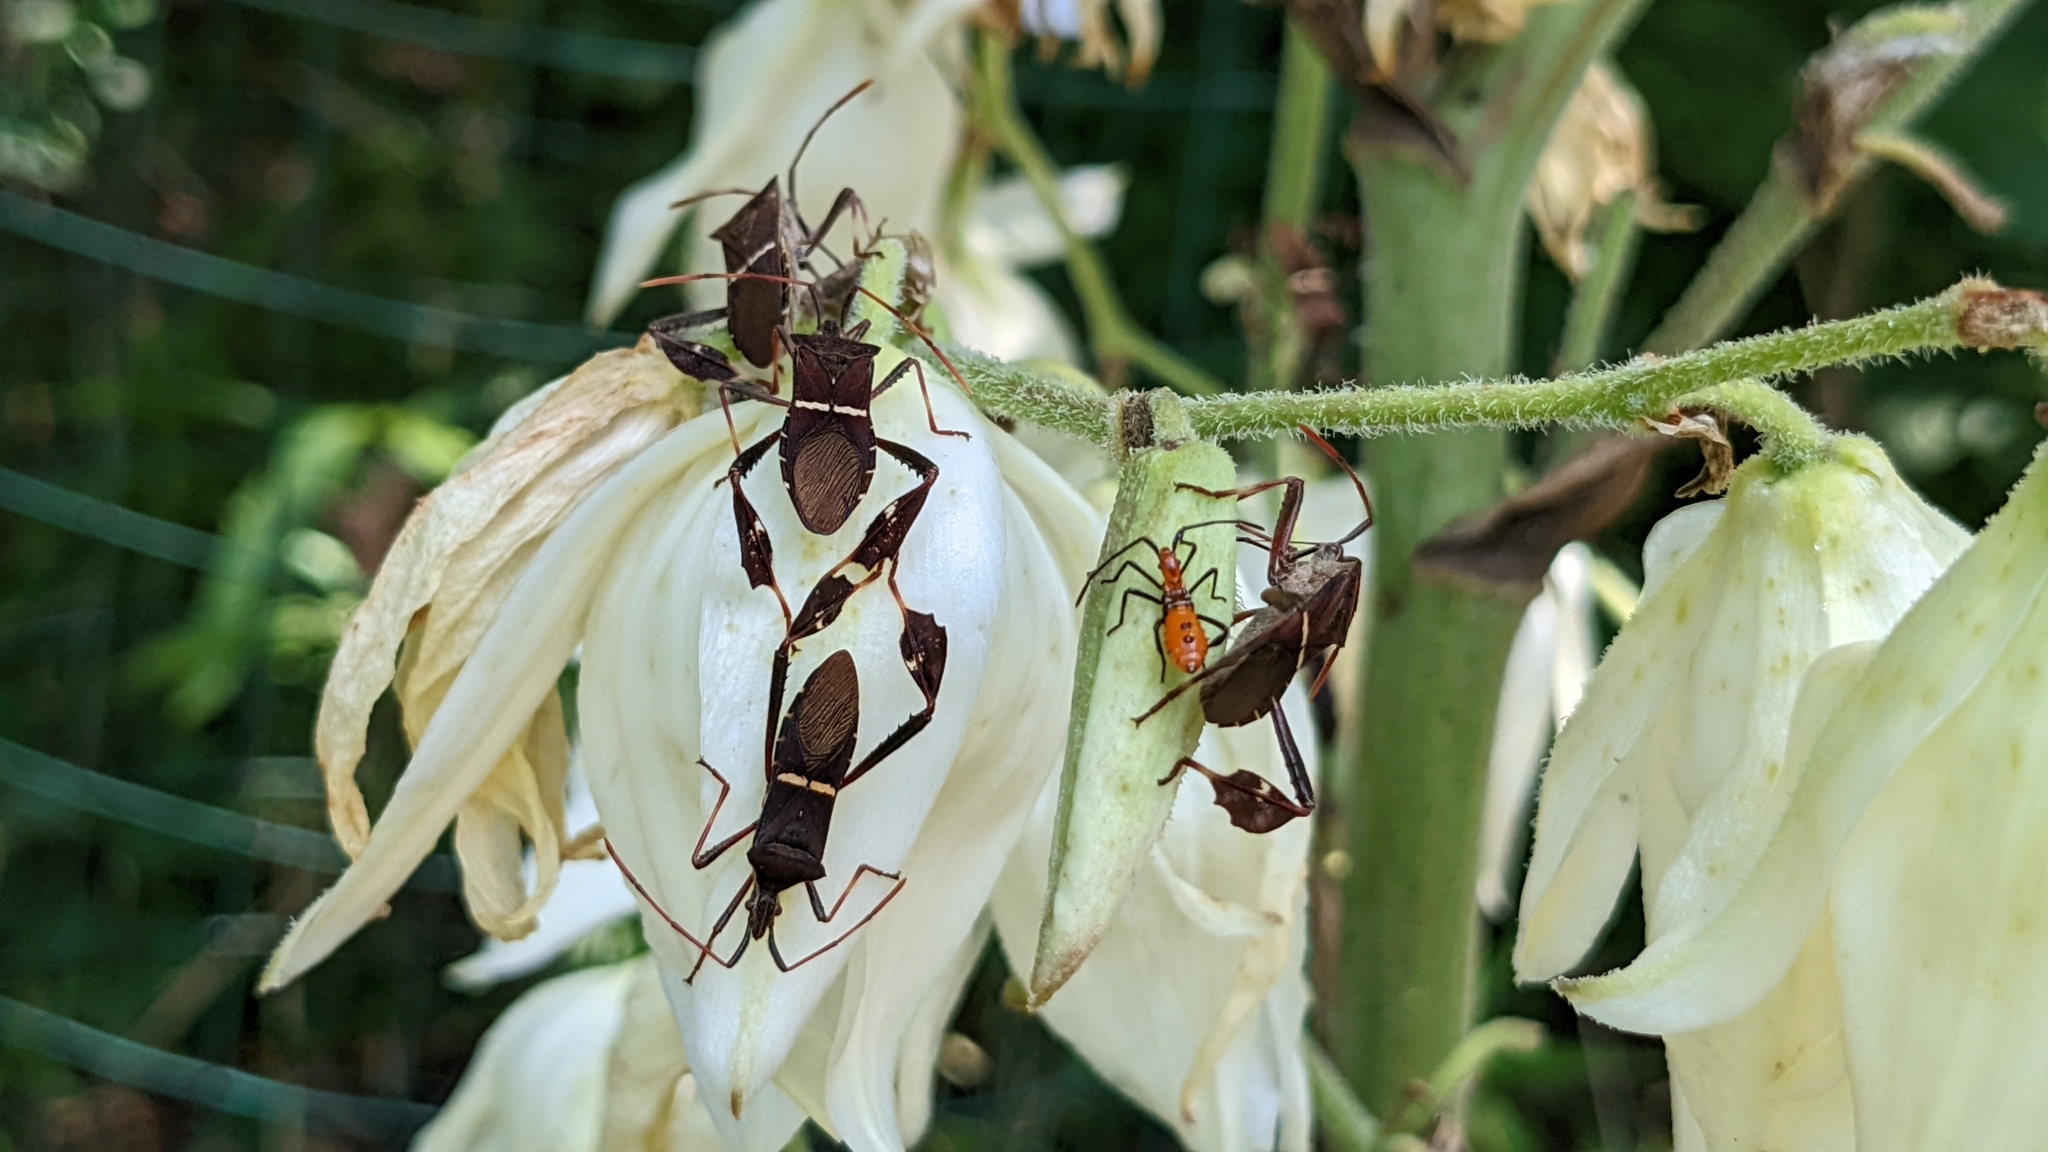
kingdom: Animalia
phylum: Arthropoda
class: Insecta
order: Hemiptera
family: Coreidae
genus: Leptoglossus
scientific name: Leptoglossus phyllopus
